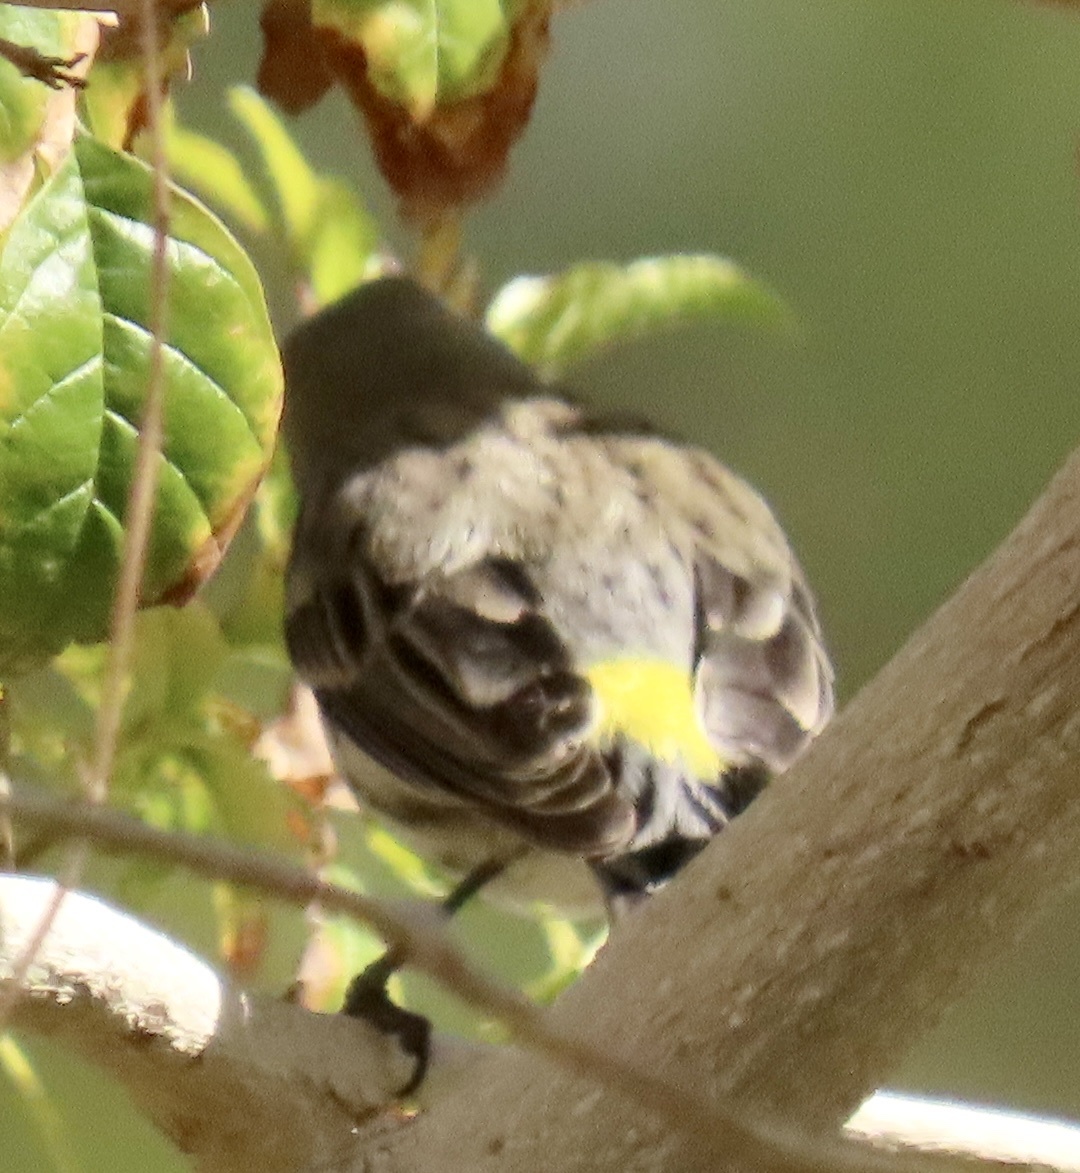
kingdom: Animalia
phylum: Chordata
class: Aves
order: Passeriformes
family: Parulidae
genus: Setophaga
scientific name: Setophaga coronata
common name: Myrtle warbler
